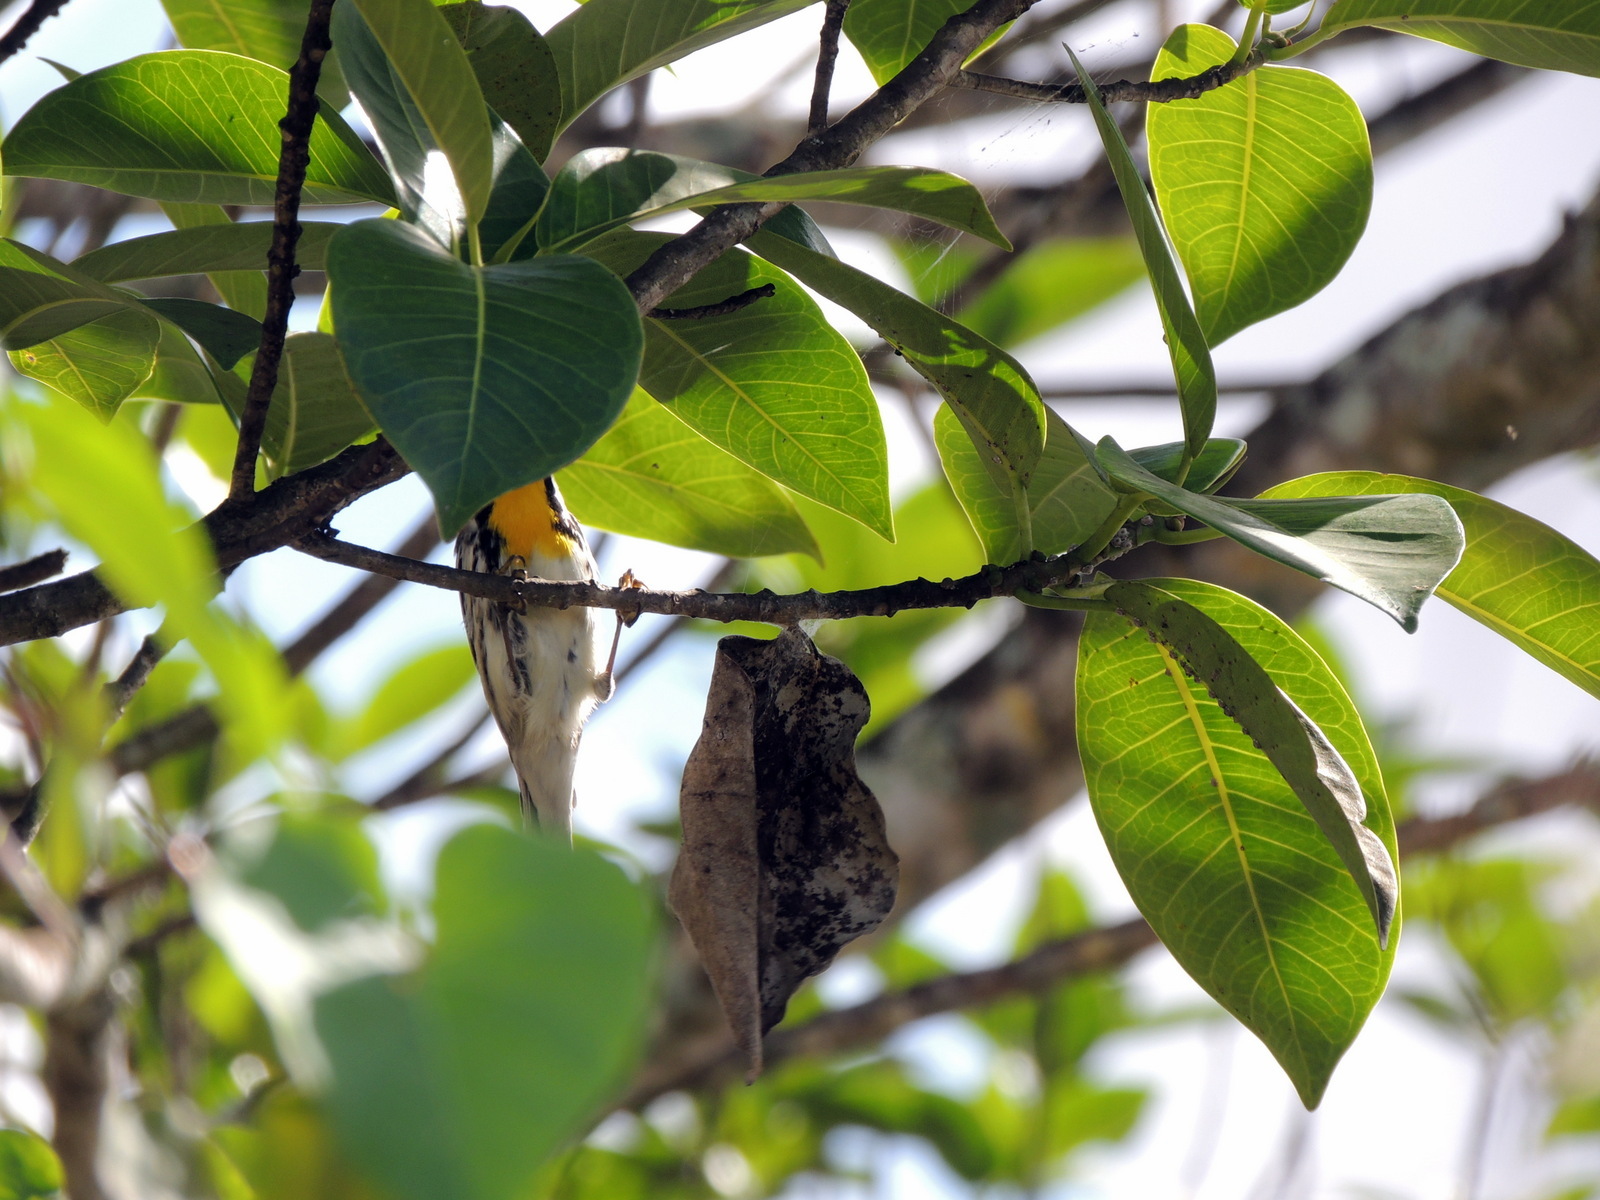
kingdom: Animalia
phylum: Chordata
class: Aves
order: Passeriformes
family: Parulidae
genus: Setophaga
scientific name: Setophaga dominica
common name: Yellow-throated warbler
